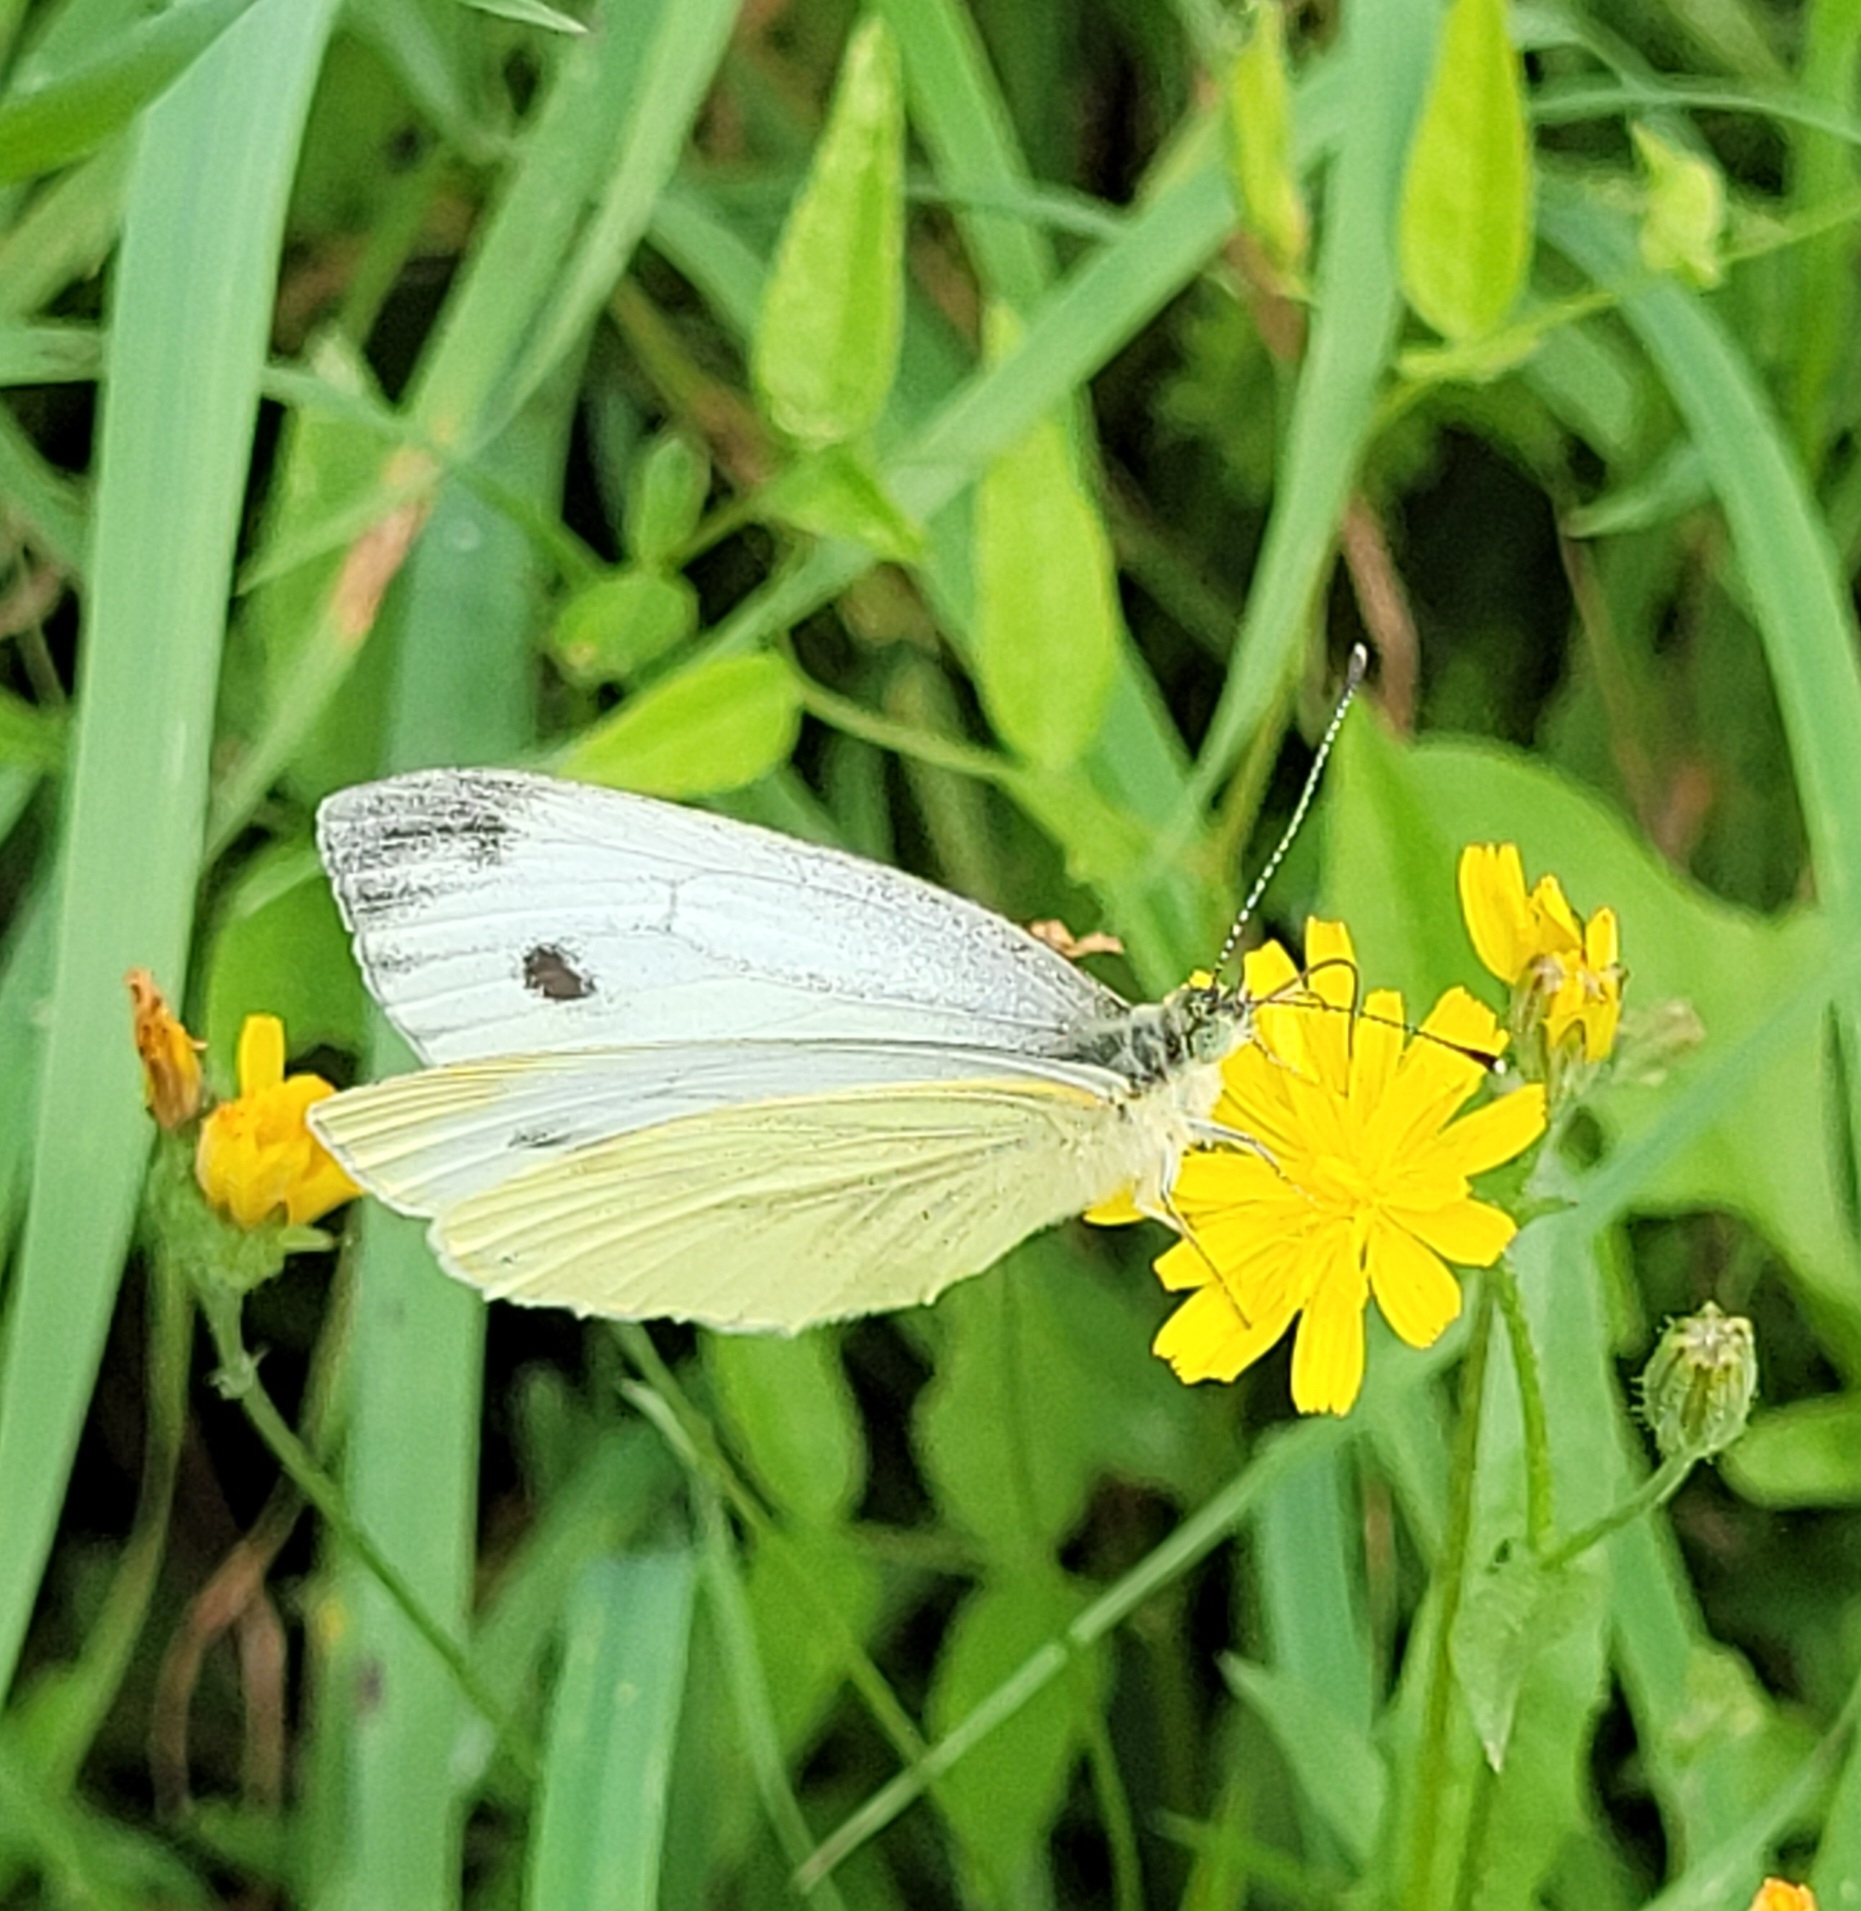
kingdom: Animalia
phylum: Arthropoda
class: Insecta
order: Lepidoptera
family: Pieridae
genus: Pieris
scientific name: Pieris napi
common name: Green-veined white
